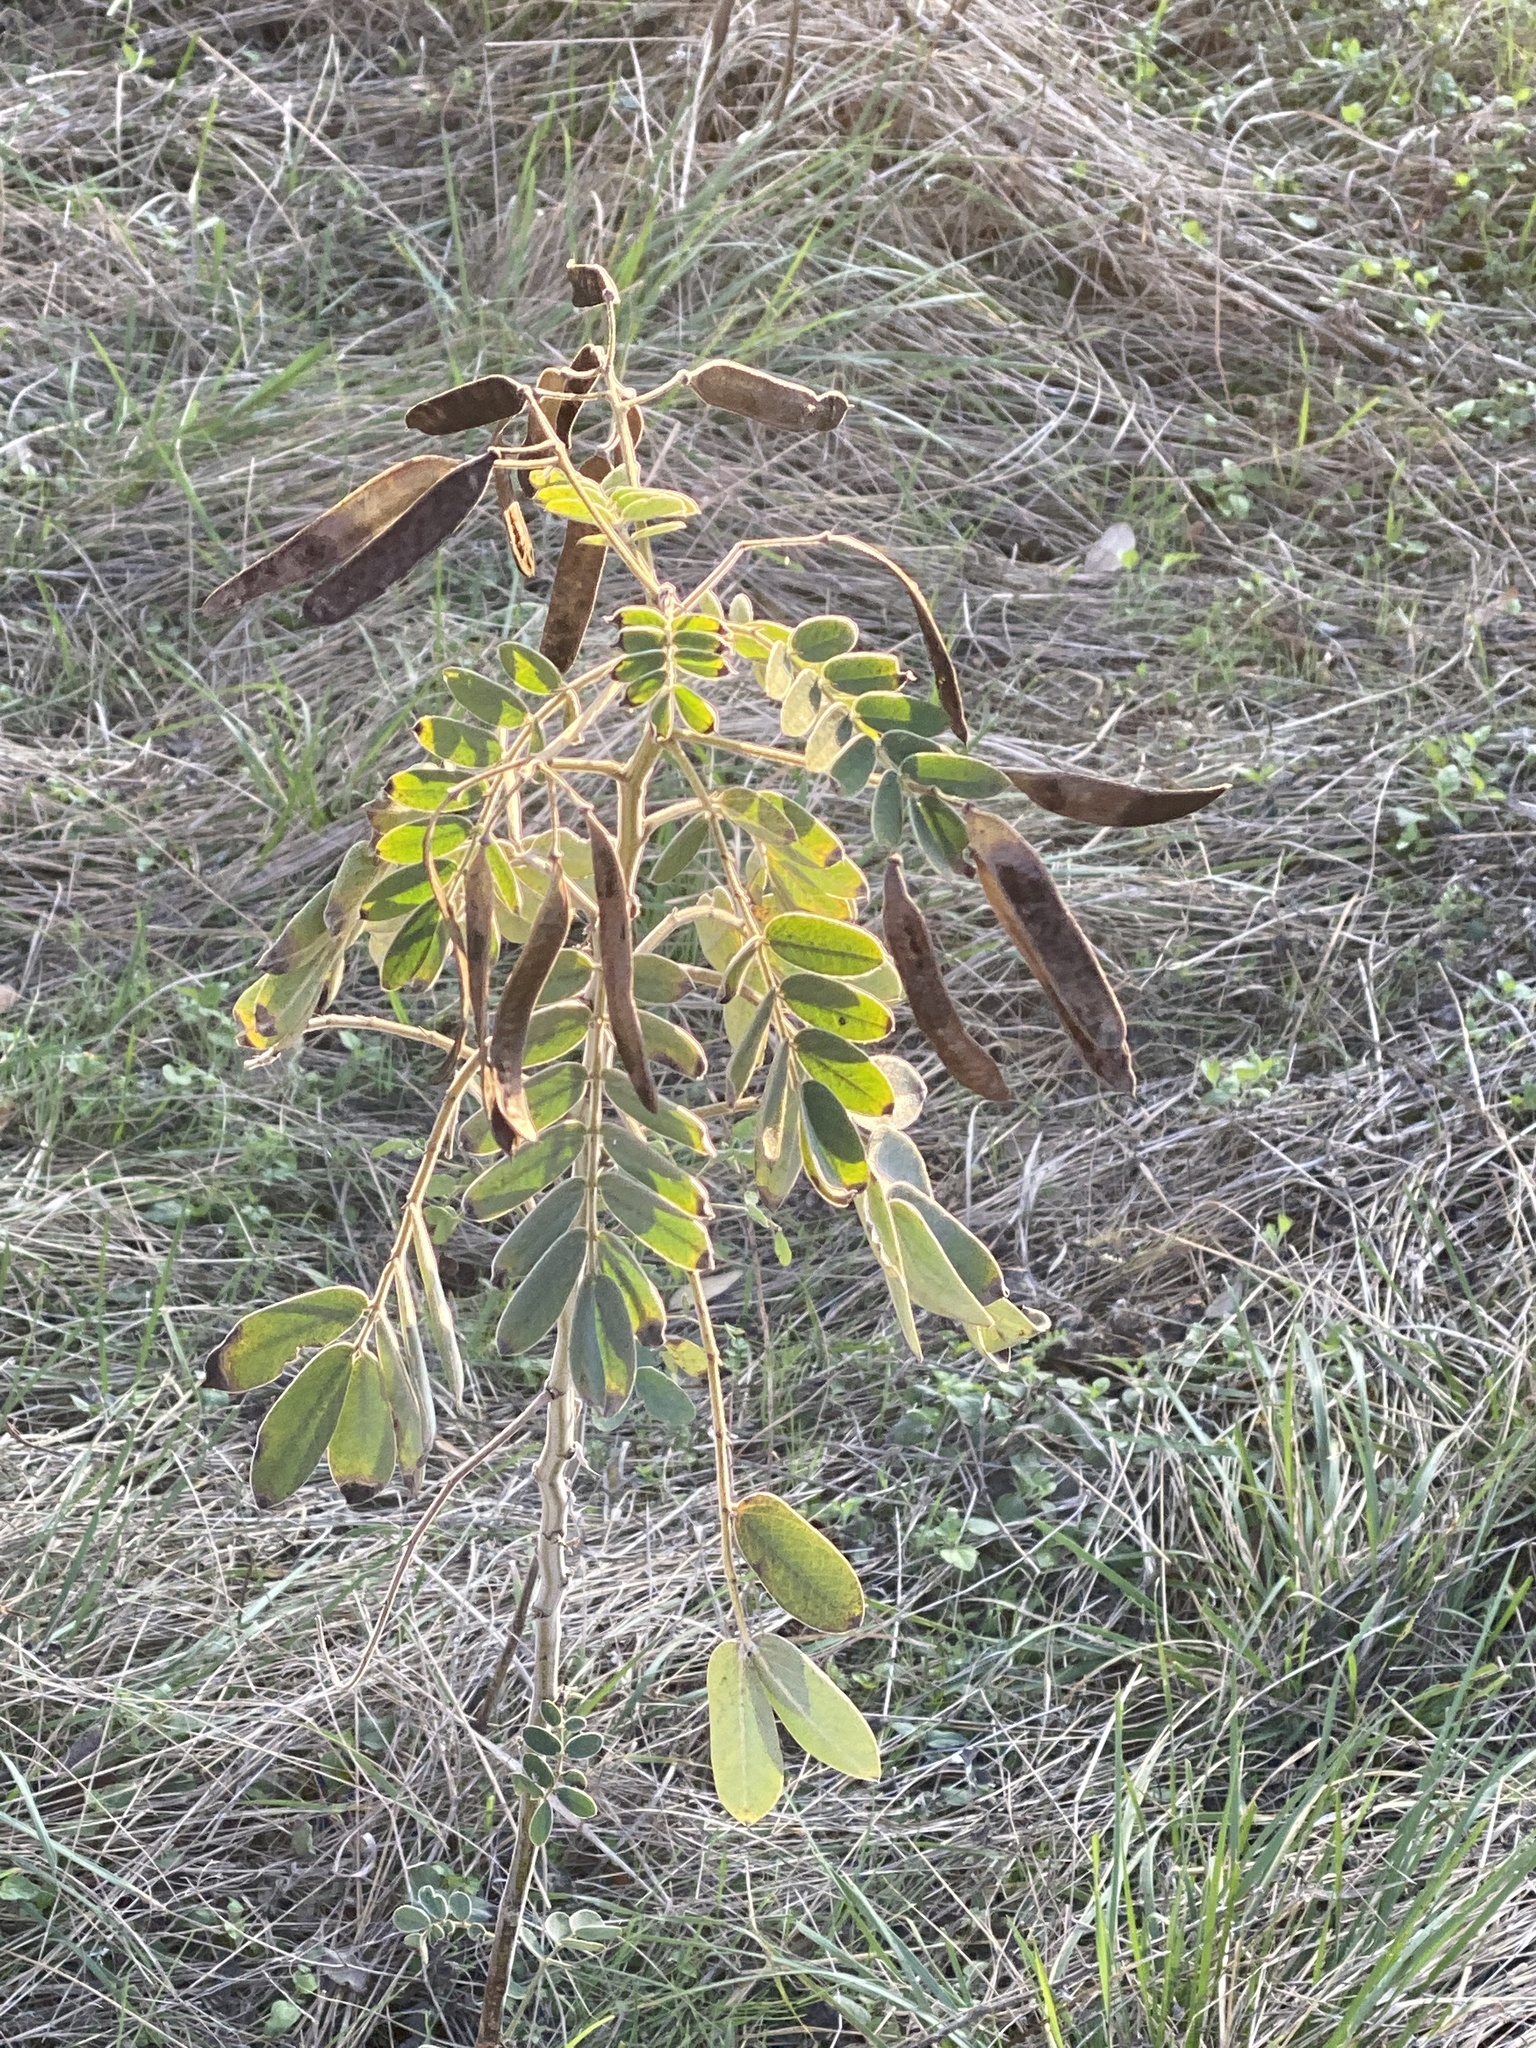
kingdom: Plantae
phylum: Tracheophyta
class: Magnoliopsida
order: Fabales
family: Fabaceae
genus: Senna
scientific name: Senna lindheimeriana
